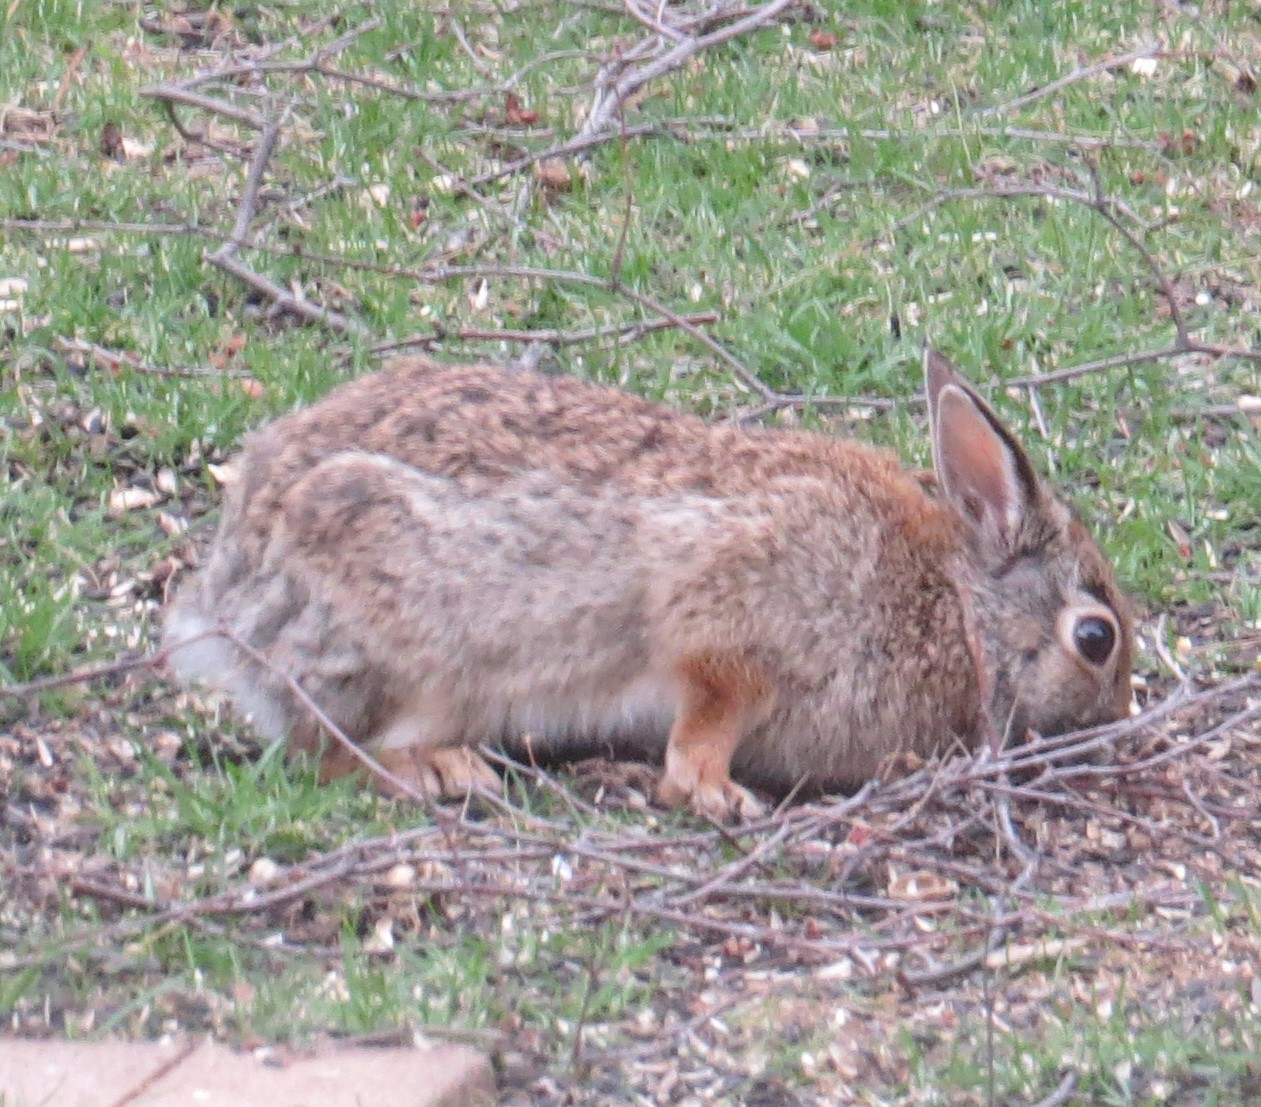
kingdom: Animalia
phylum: Chordata
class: Mammalia
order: Lagomorpha
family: Leporidae
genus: Sylvilagus
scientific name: Sylvilagus floridanus
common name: Eastern cottontail
